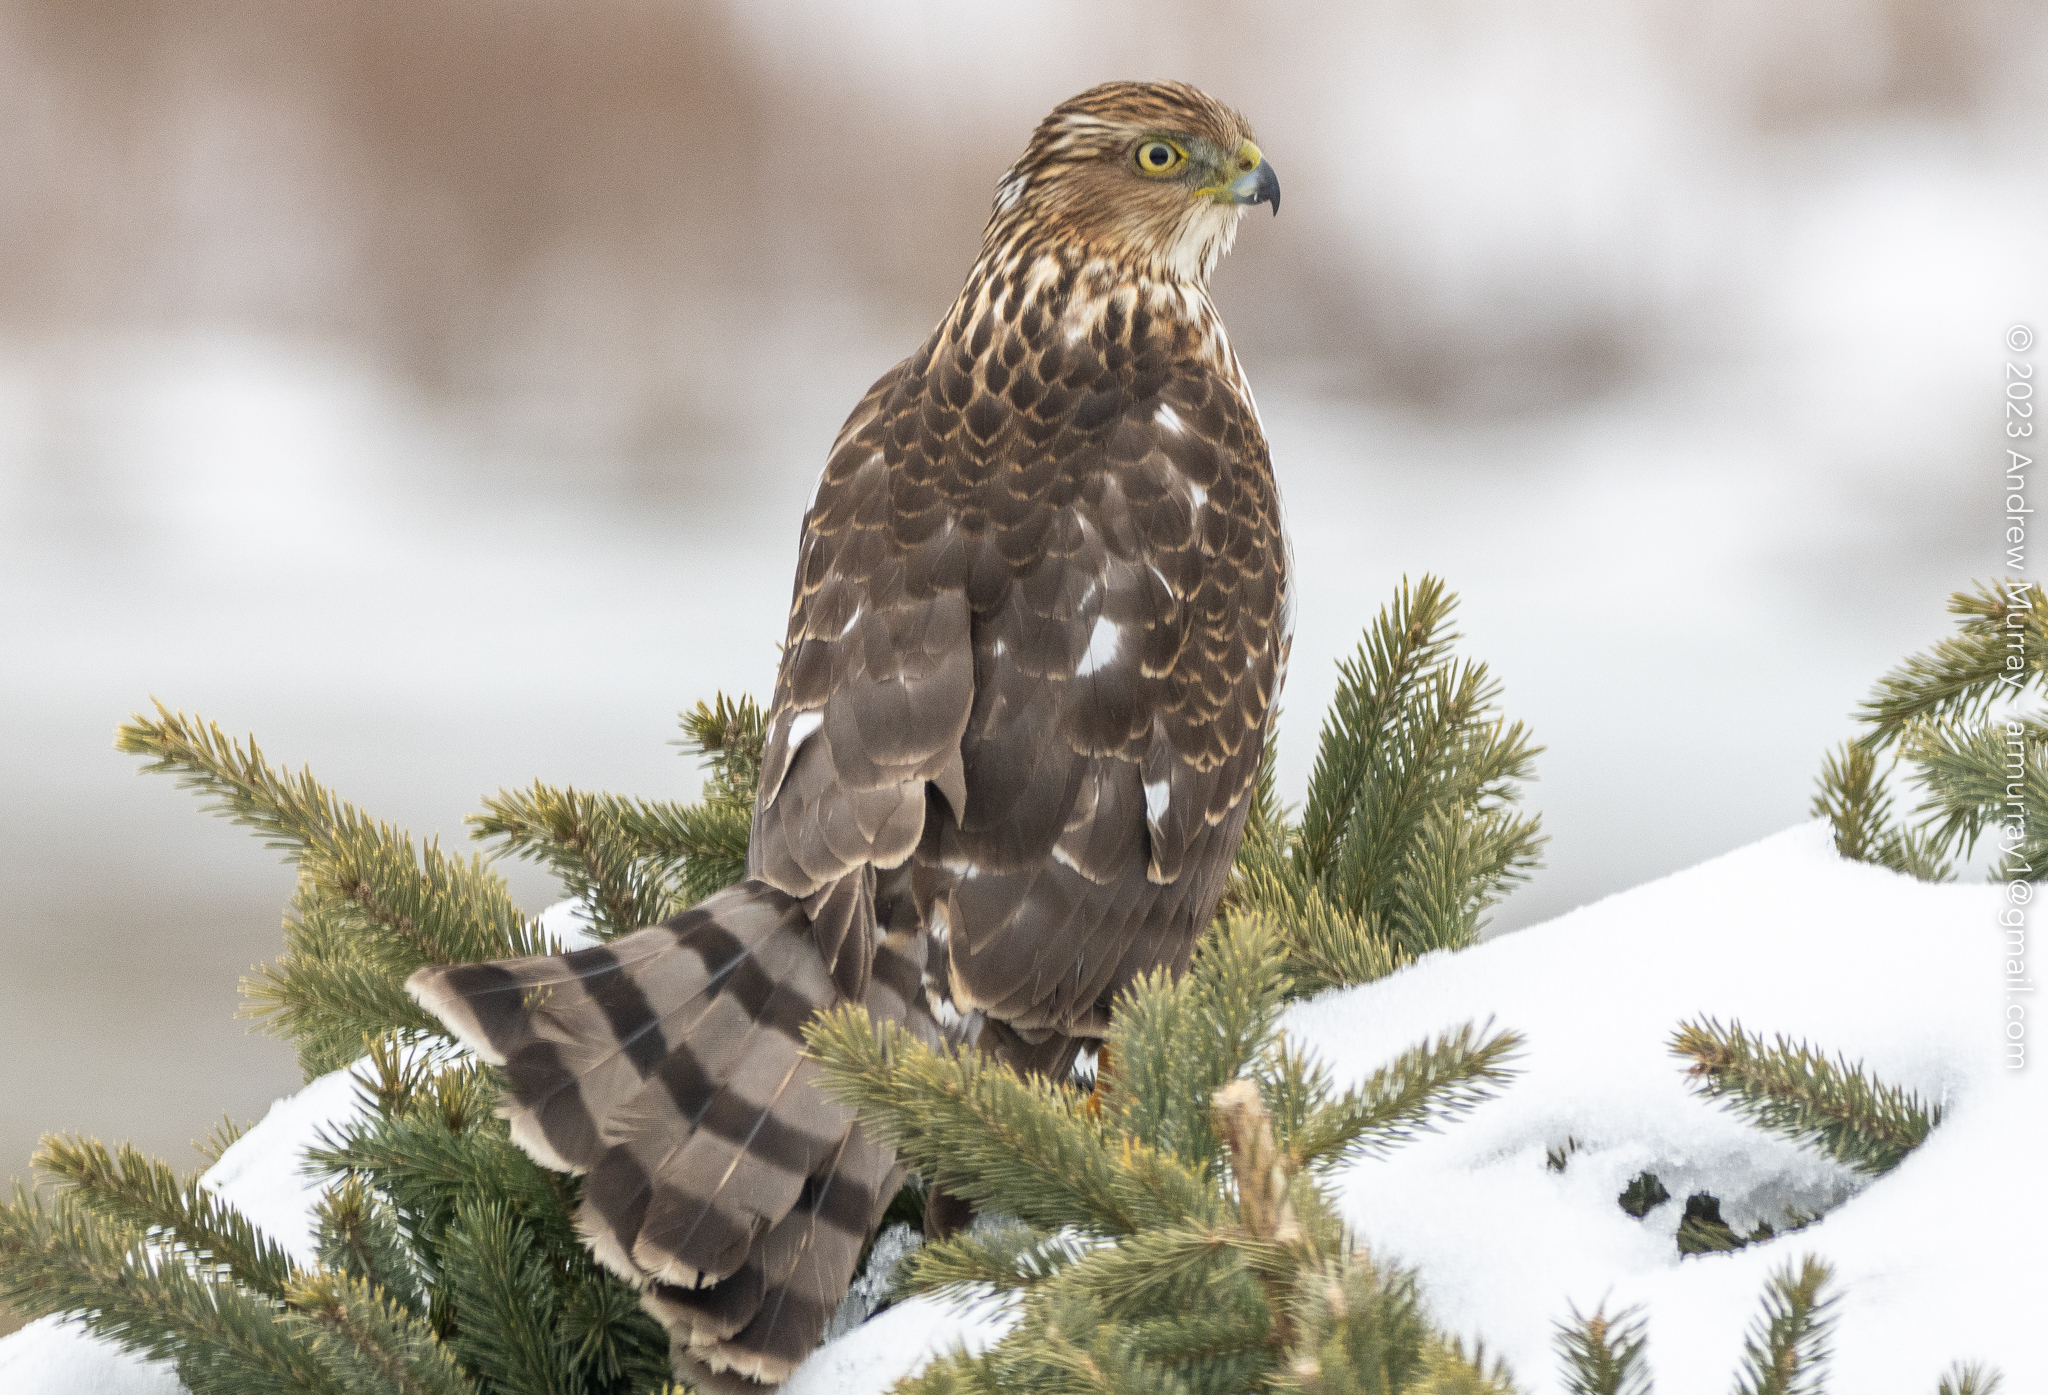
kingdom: Animalia
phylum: Chordata
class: Aves
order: Accipitriformes
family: Accipitridae
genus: Accipiter
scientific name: Accipiter cooperii
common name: Cooper's hawk
